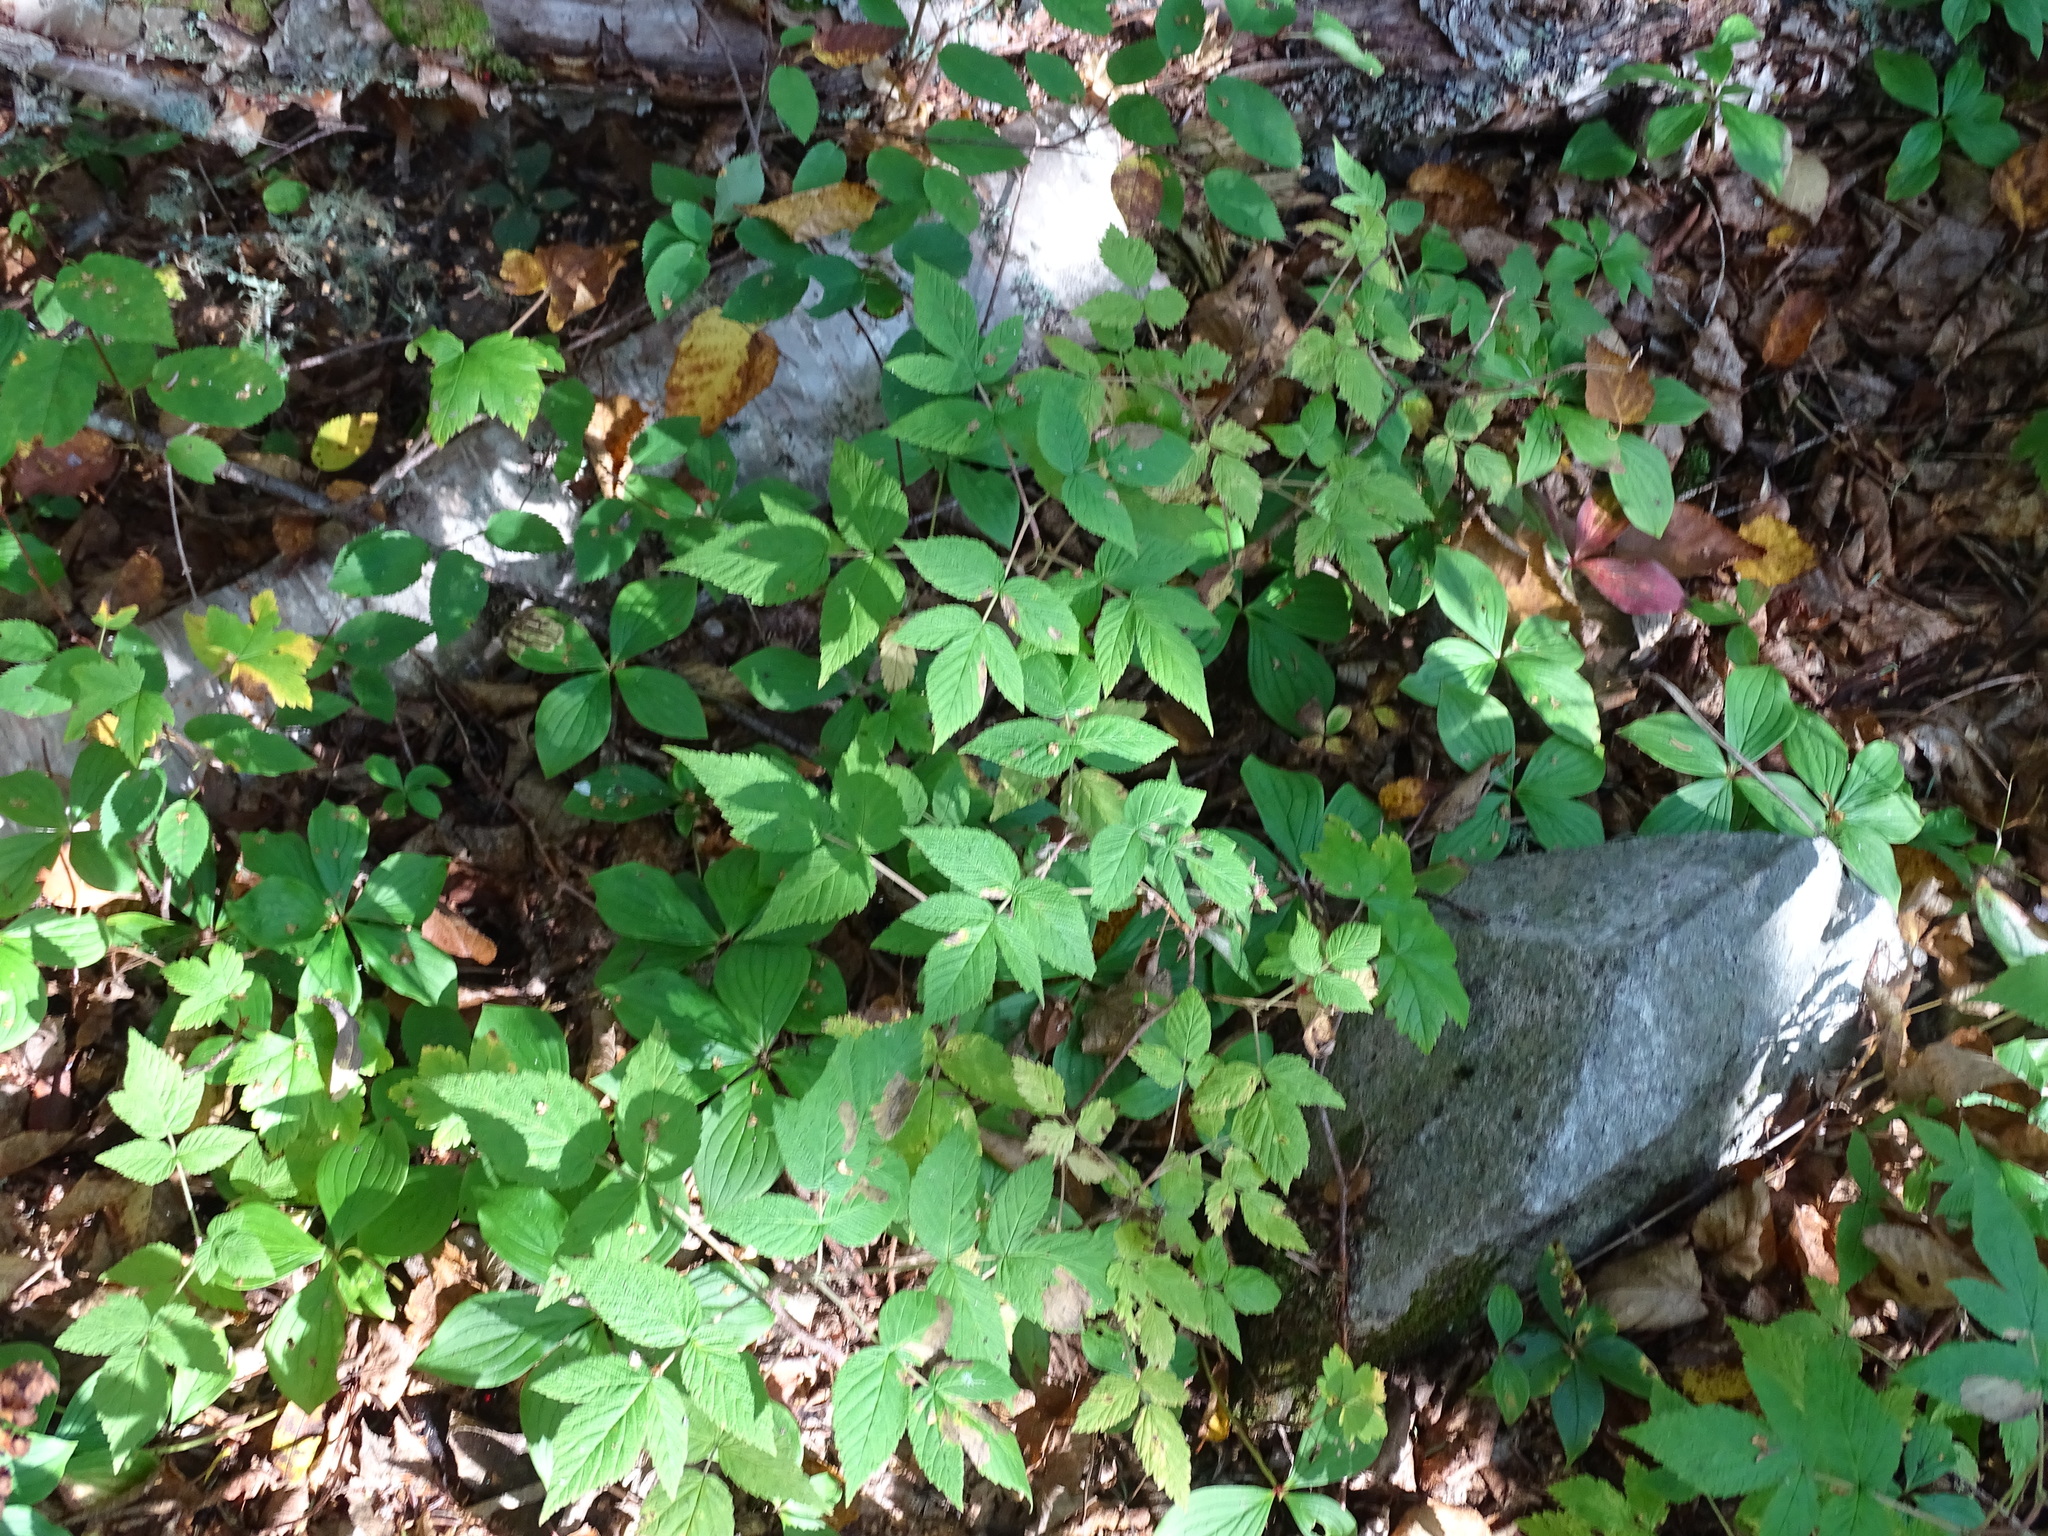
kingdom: Plantae
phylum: Tracheophyta
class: Magnoliopsida
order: Rosales
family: Rosaceae
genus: Rubus
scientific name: Rubus idaeus
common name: Raspberry
